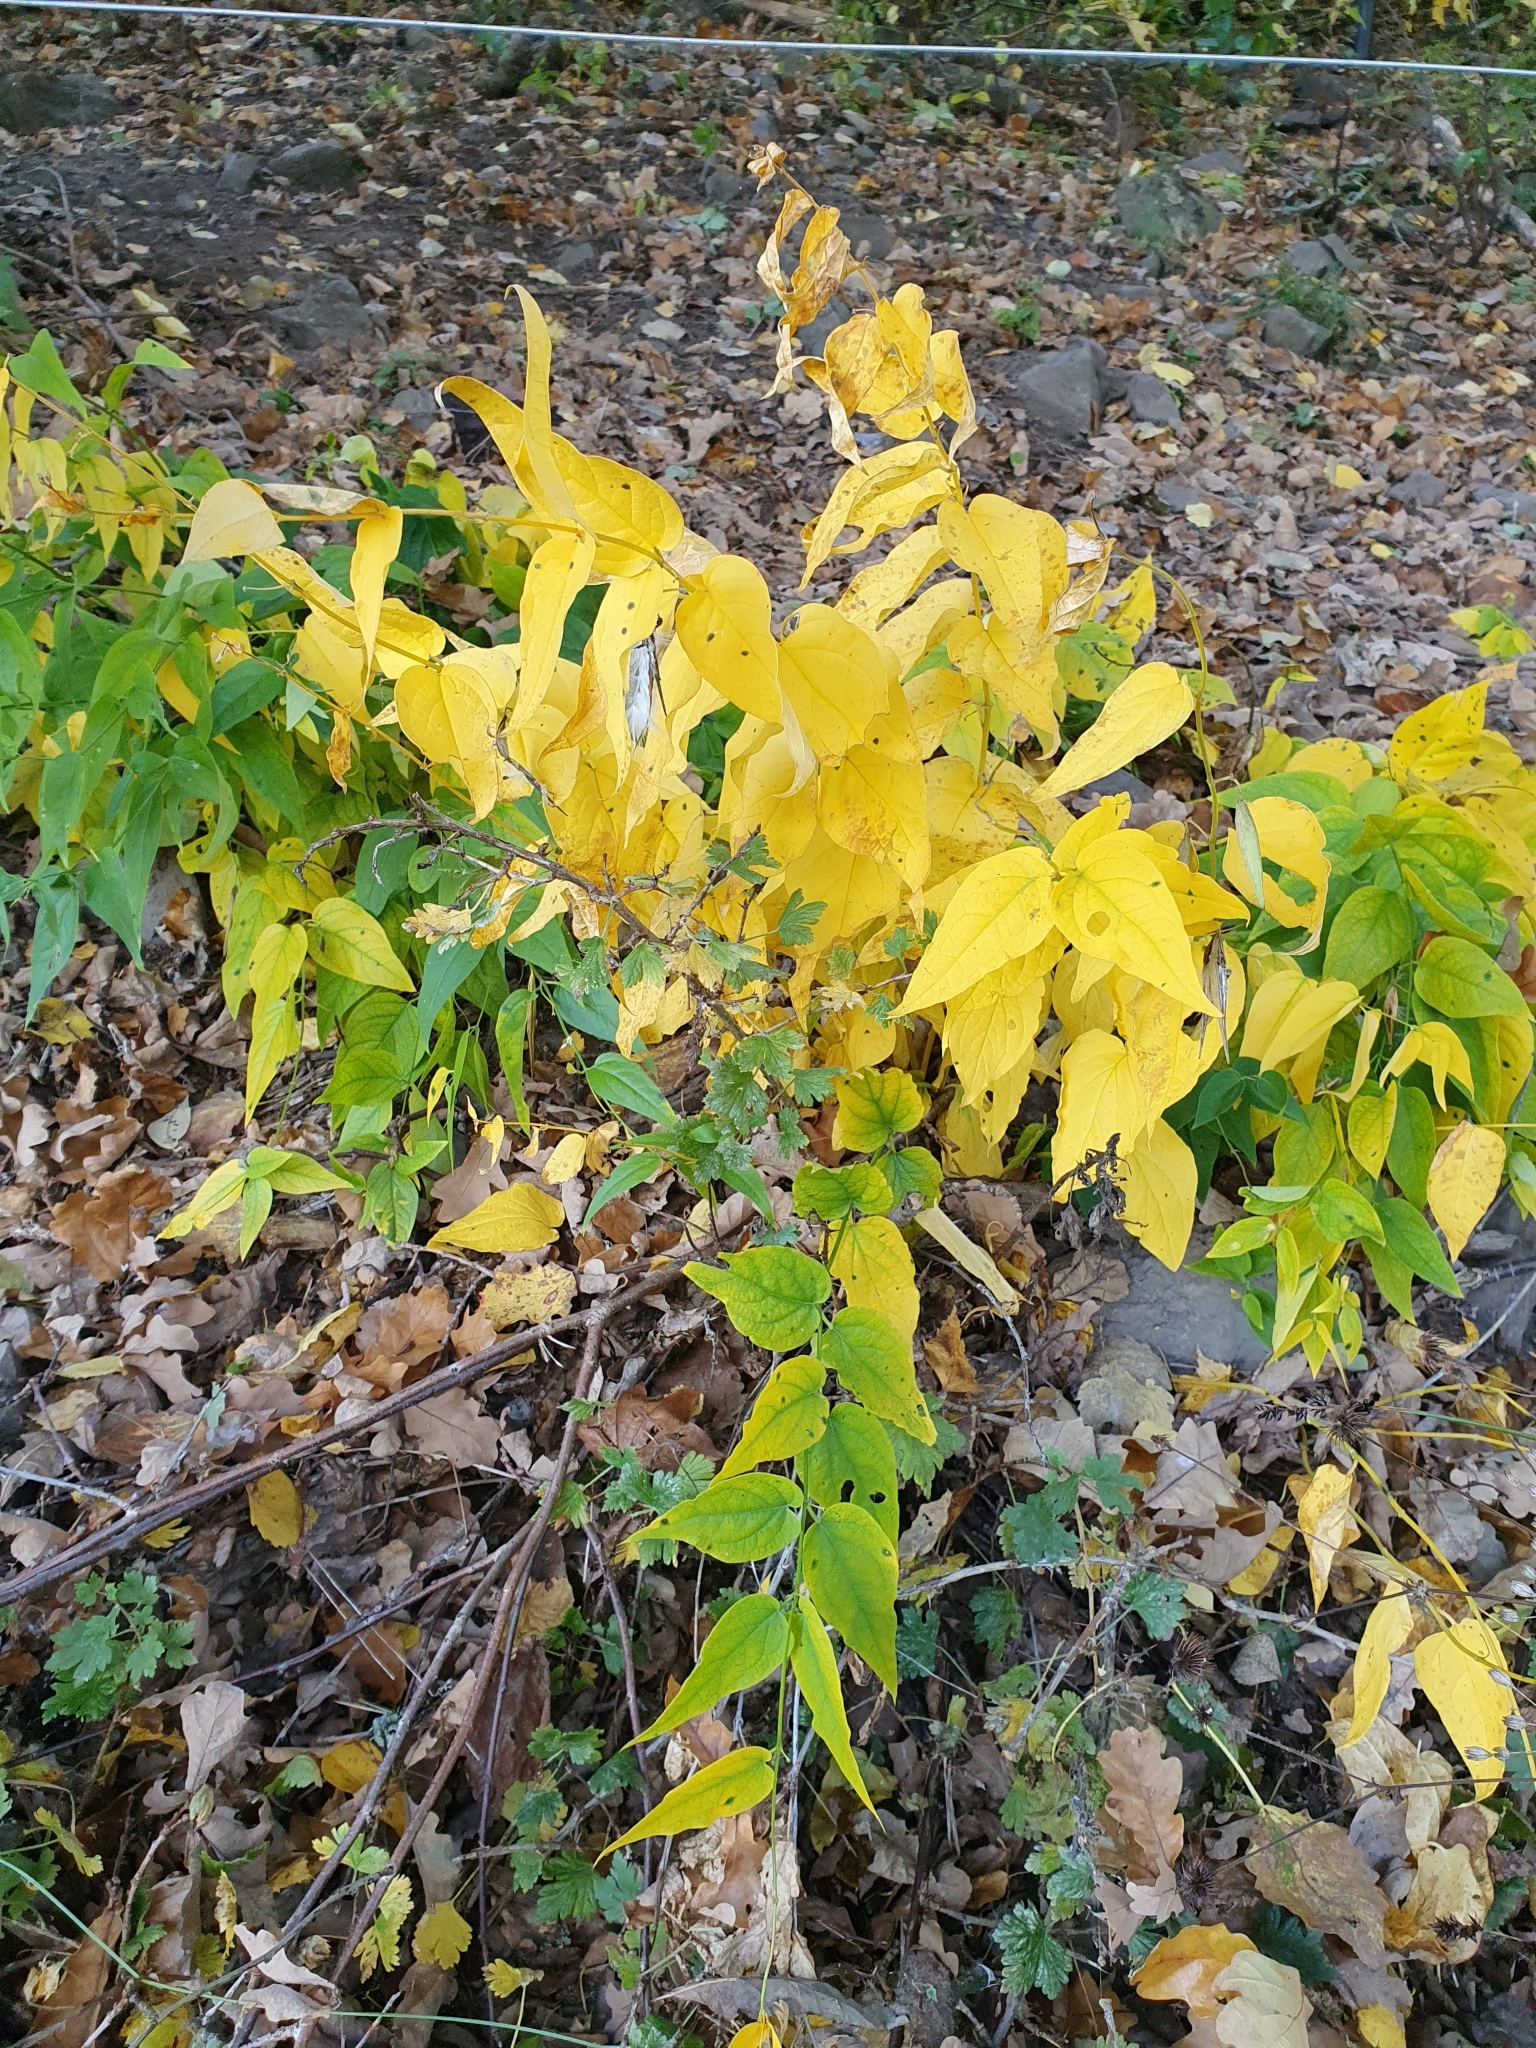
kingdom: Plantae
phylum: Tracheophyta
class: Magnoliopsida
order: Gentianales
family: Apocynaceae
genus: Vincetoxicum
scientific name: Vincetoxicum hirundinaria
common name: White swallowwort
